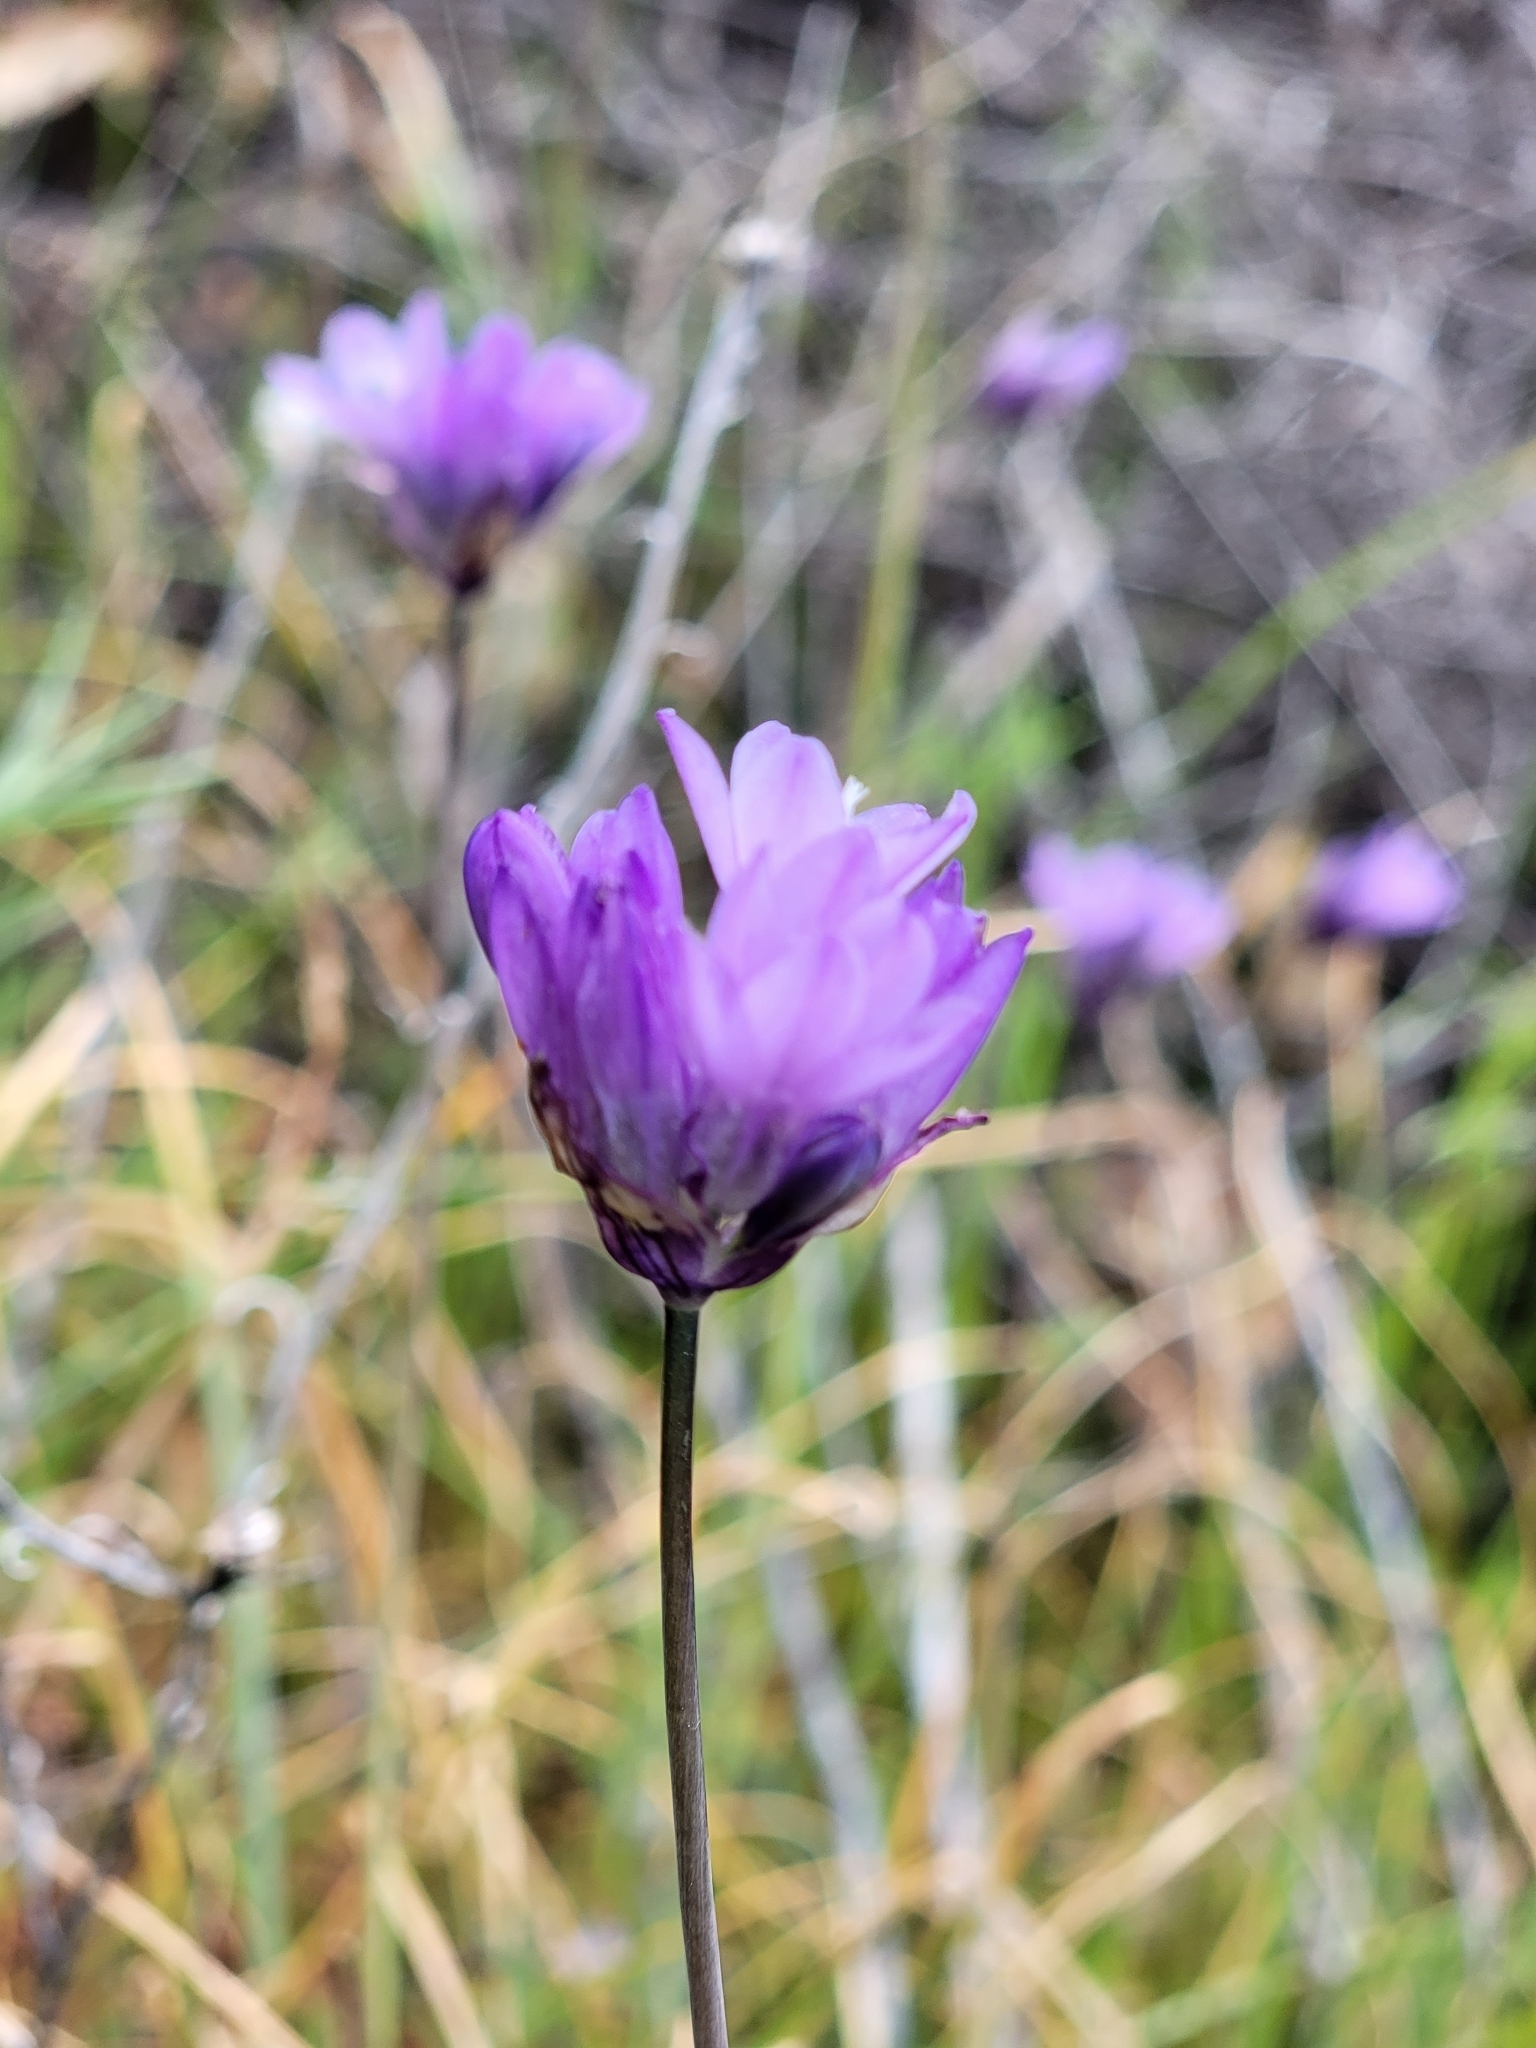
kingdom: Plantae
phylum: Tracheophyta
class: Liliopsida
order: Asparagales
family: Asparagaceae
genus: Dipterostemon
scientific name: Dipterostemon capitatus
